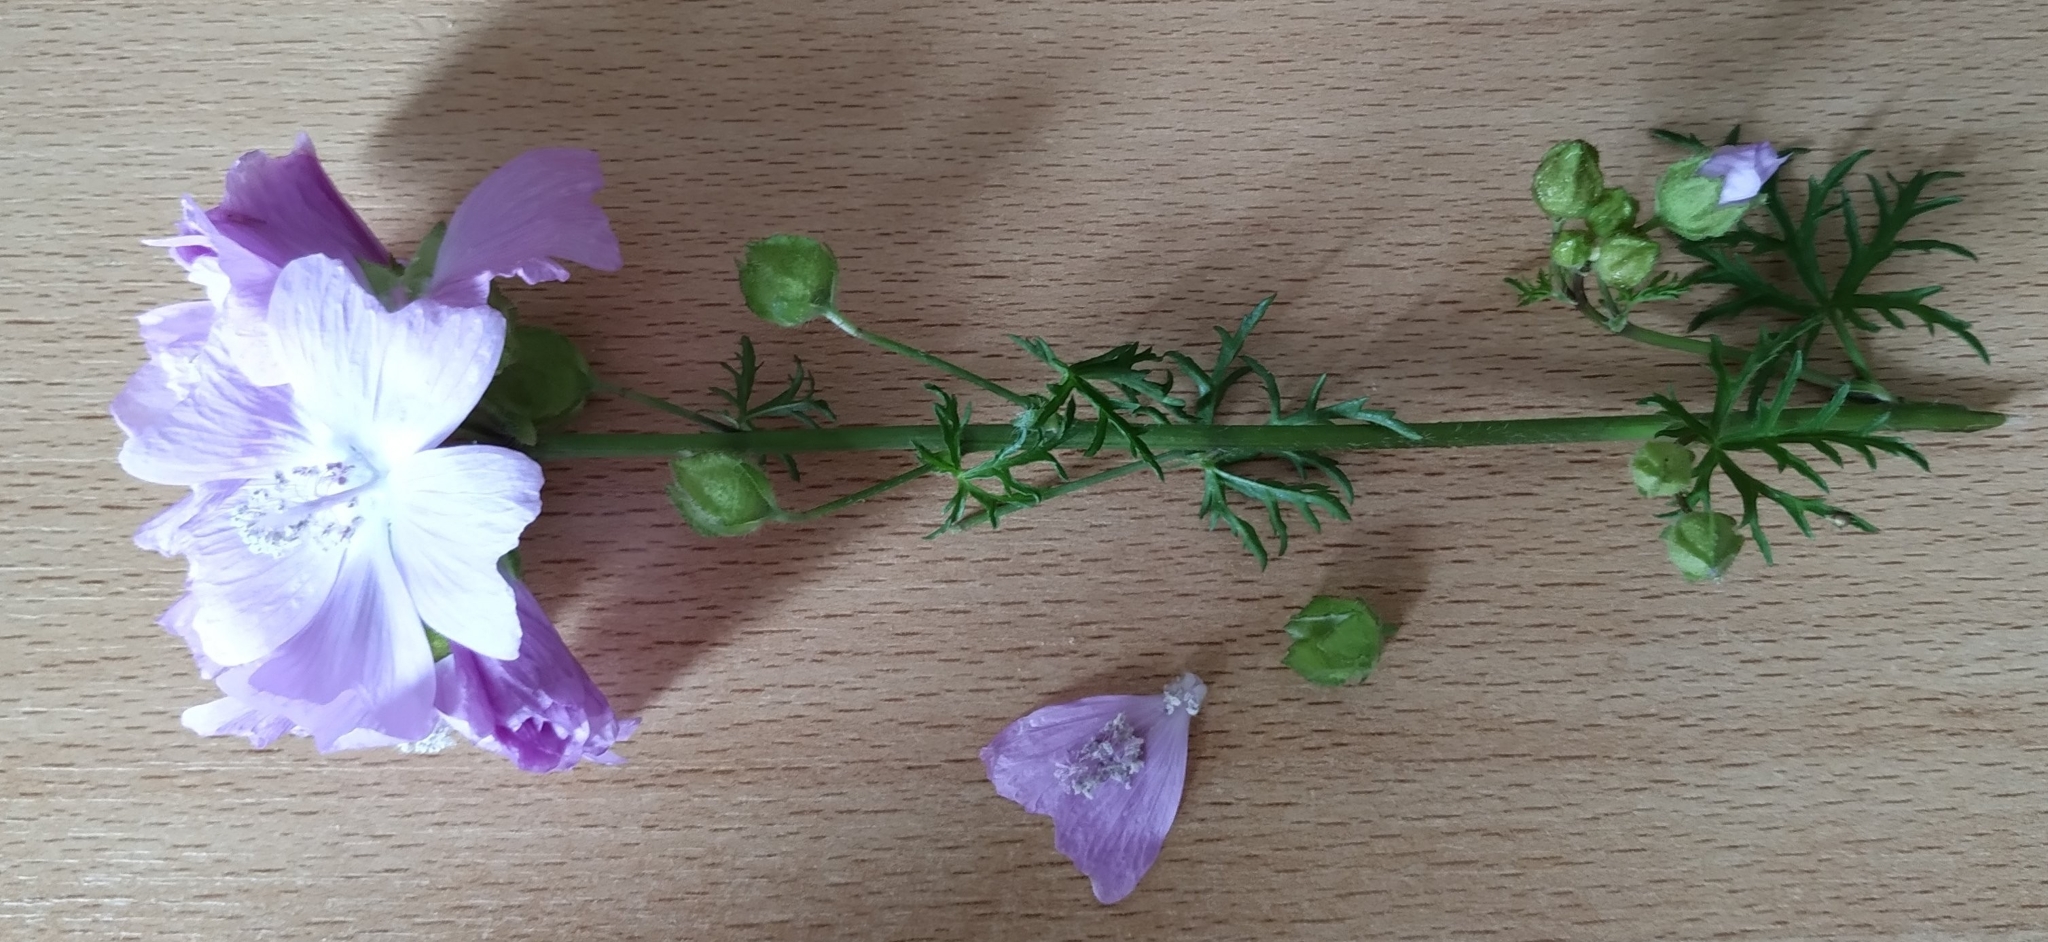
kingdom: Plantae
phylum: Tracheophyta
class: Magnoliopsida
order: Malvales
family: Malvaceae
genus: Malva
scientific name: Malva moschata
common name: Musk mallow
